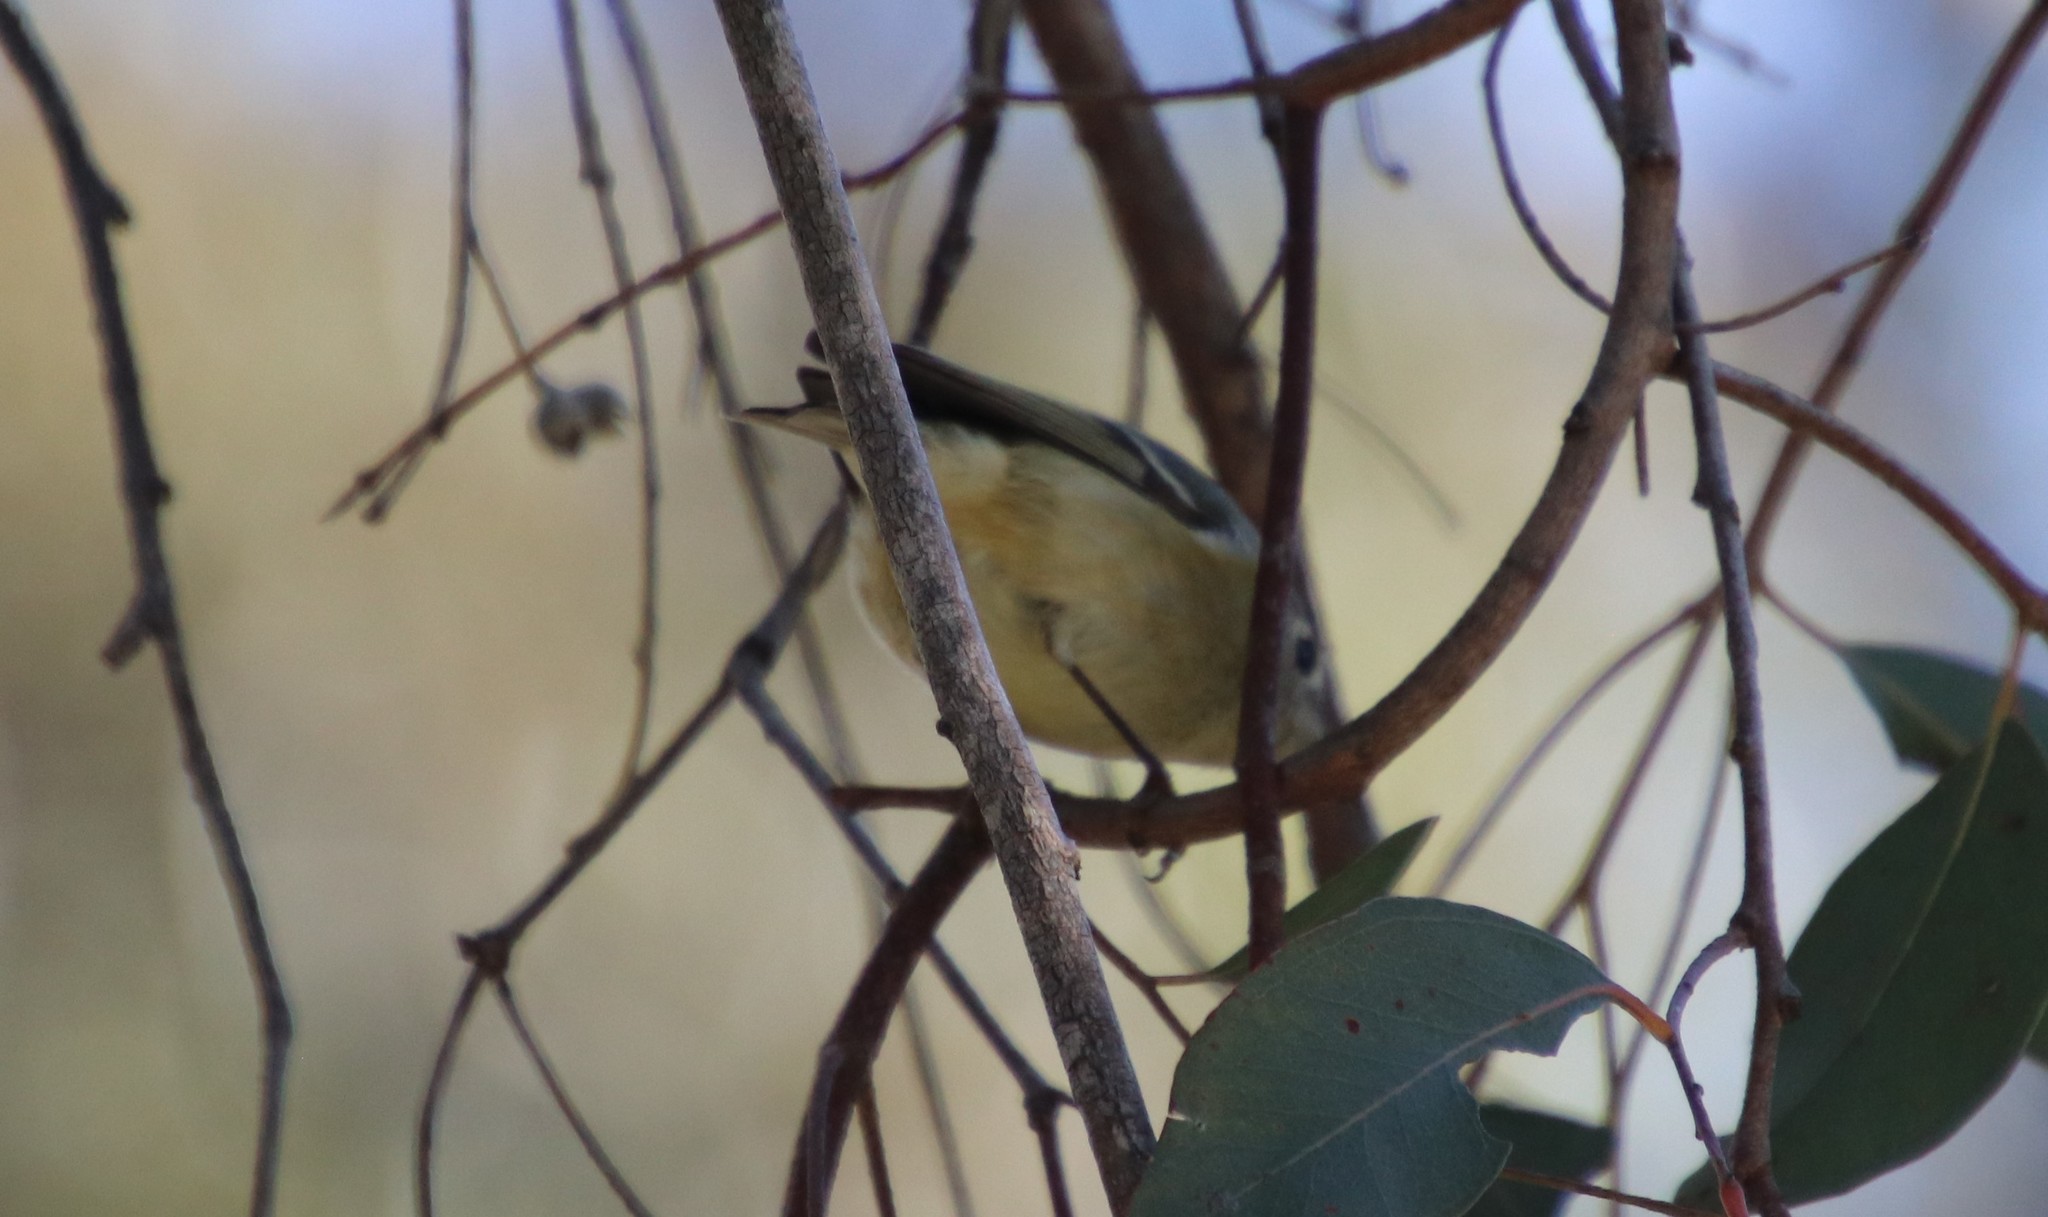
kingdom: Animalia
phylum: Chordata
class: Aves
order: Passeriformes
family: Regulidae
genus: Regulus
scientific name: Regulus calendula
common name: Ruby-crowned kinglet
